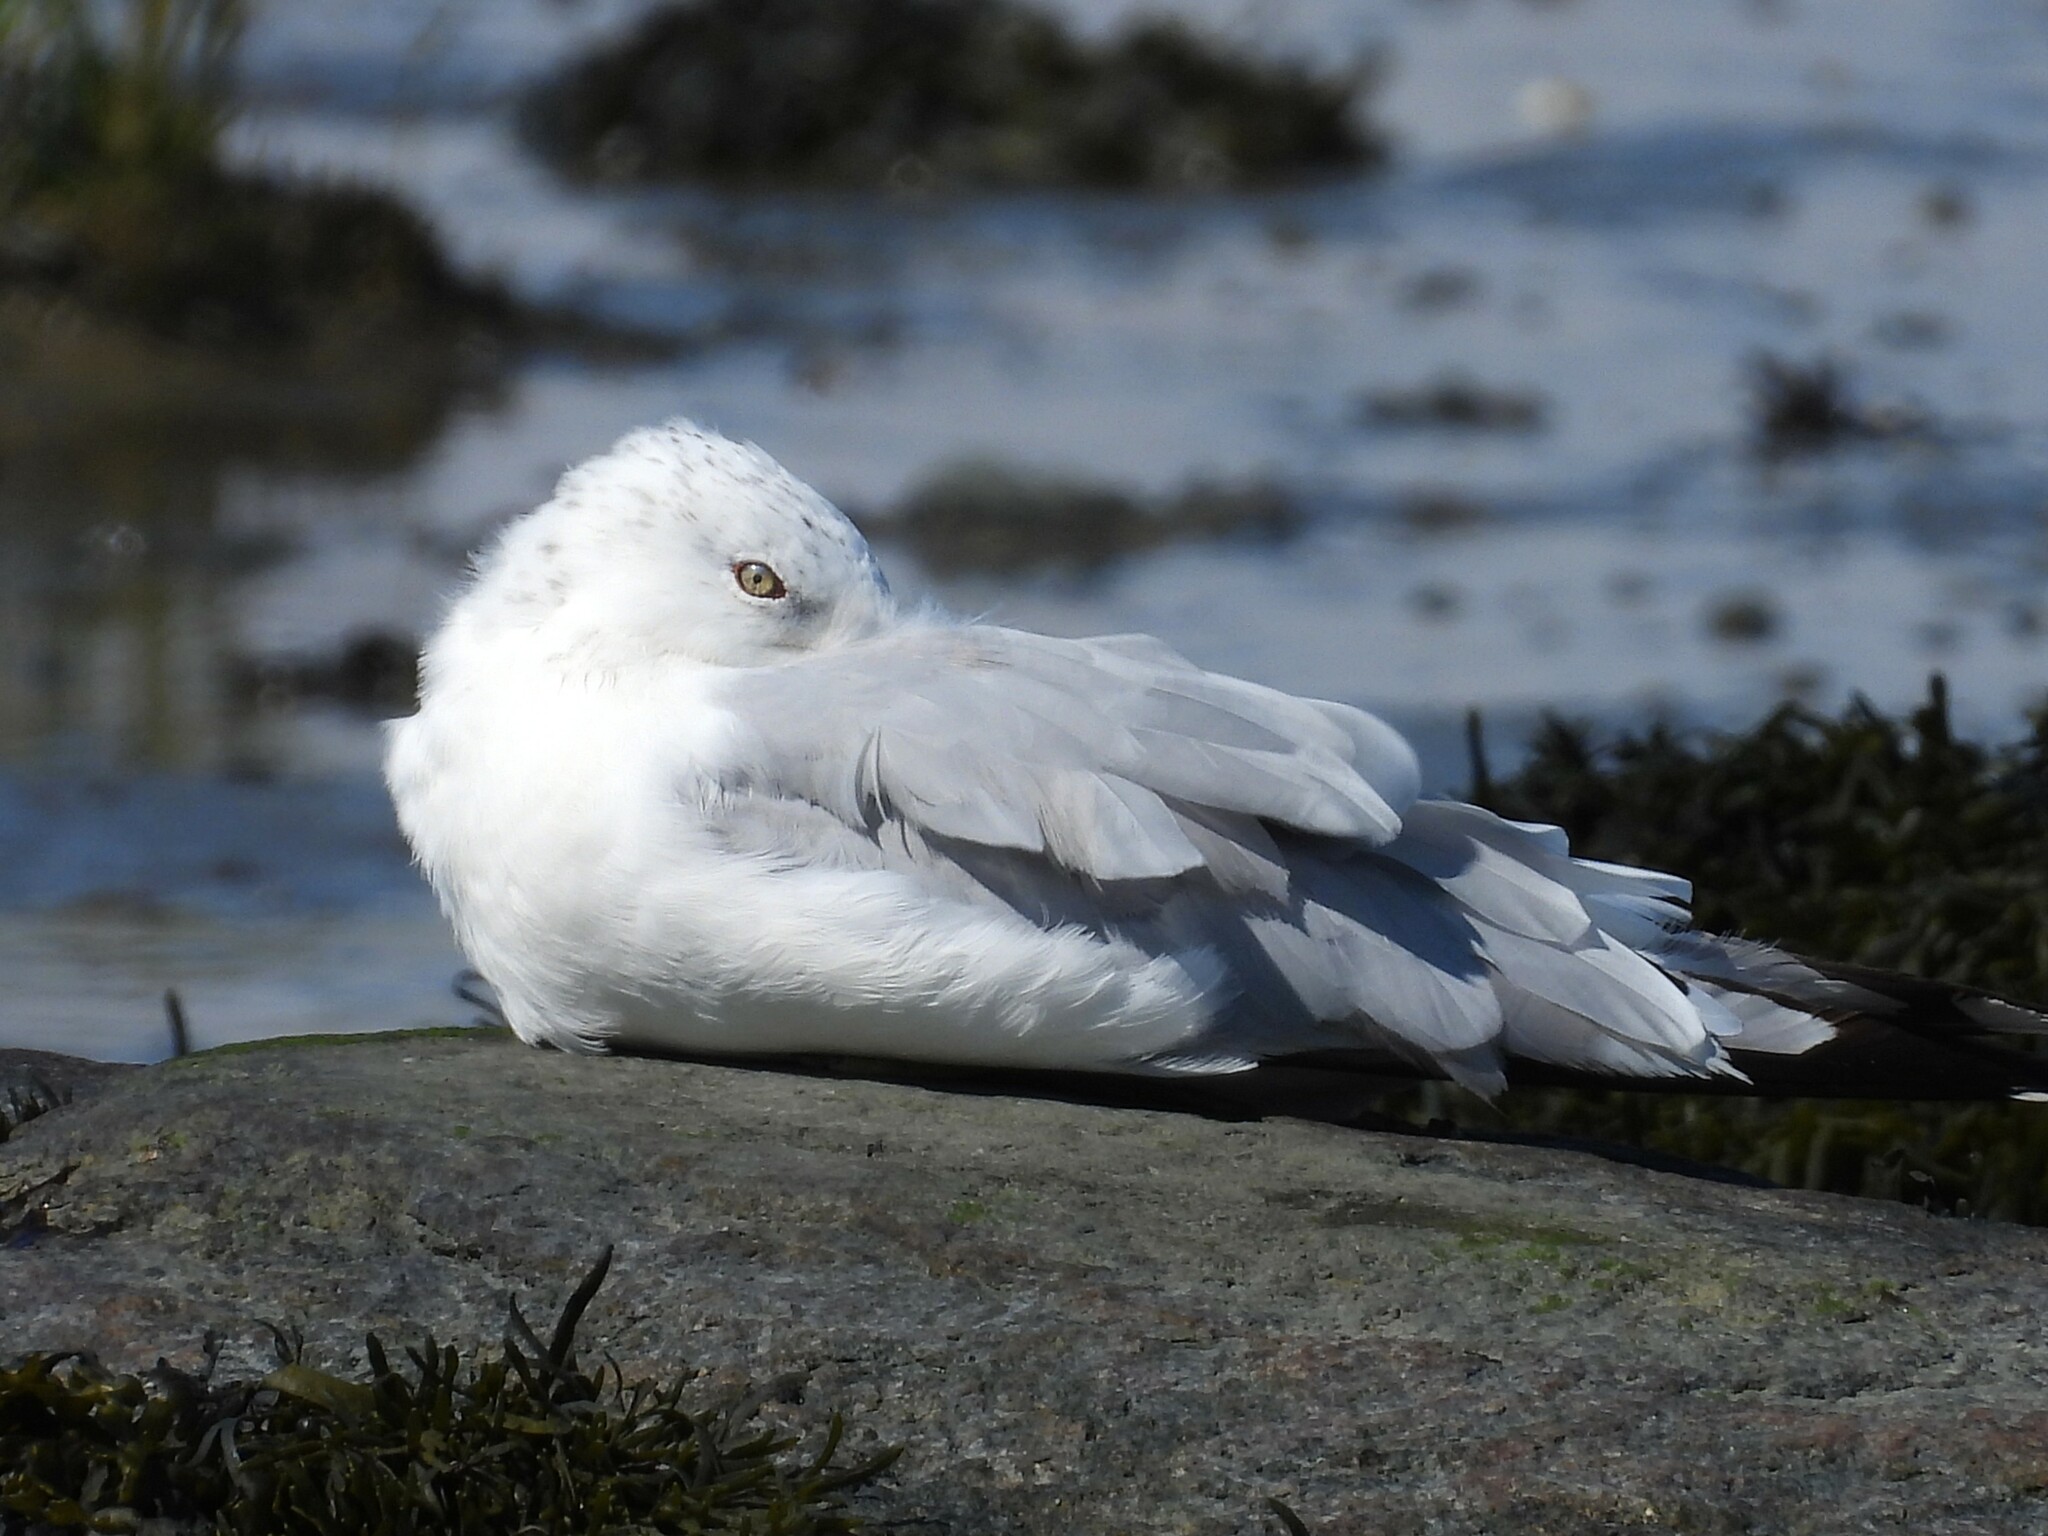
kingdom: Animalia
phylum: Chordata
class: Aves
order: Charadriiformes
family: Laridae
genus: Larus
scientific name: Larus delawarensis
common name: Ring-billed gull
